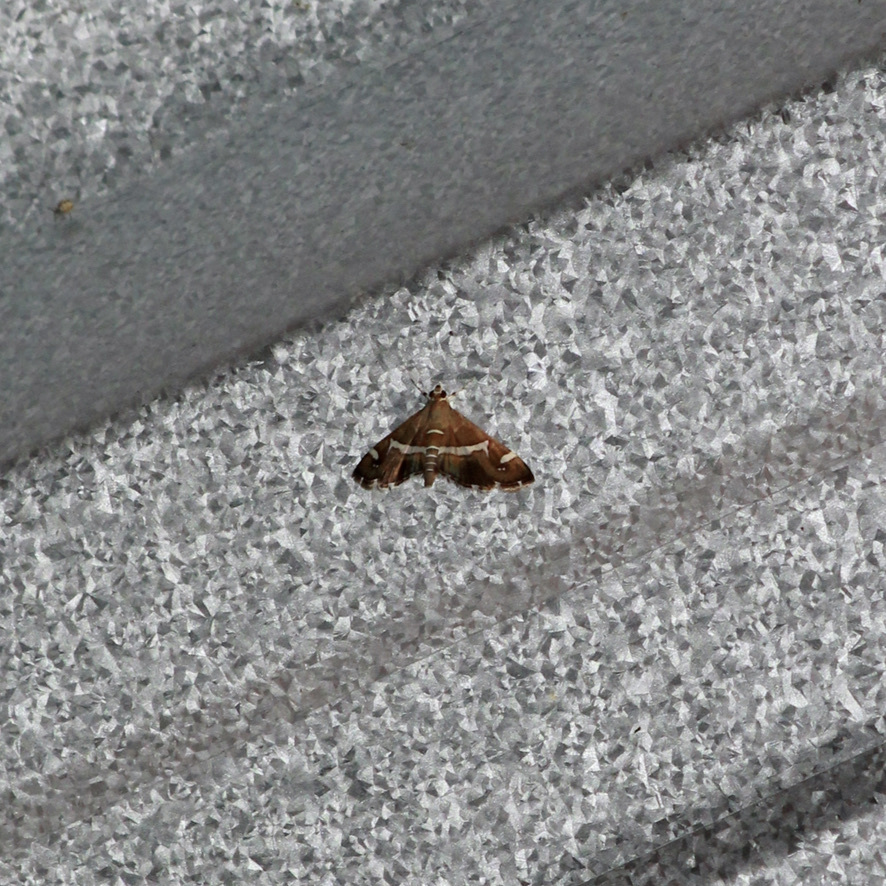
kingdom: Animalia
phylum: Arthropoda
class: Insecta
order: Lepidoptera
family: Crambidae
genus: Spoladea
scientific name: Spoladea recurvalis
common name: Beet webworm moth
